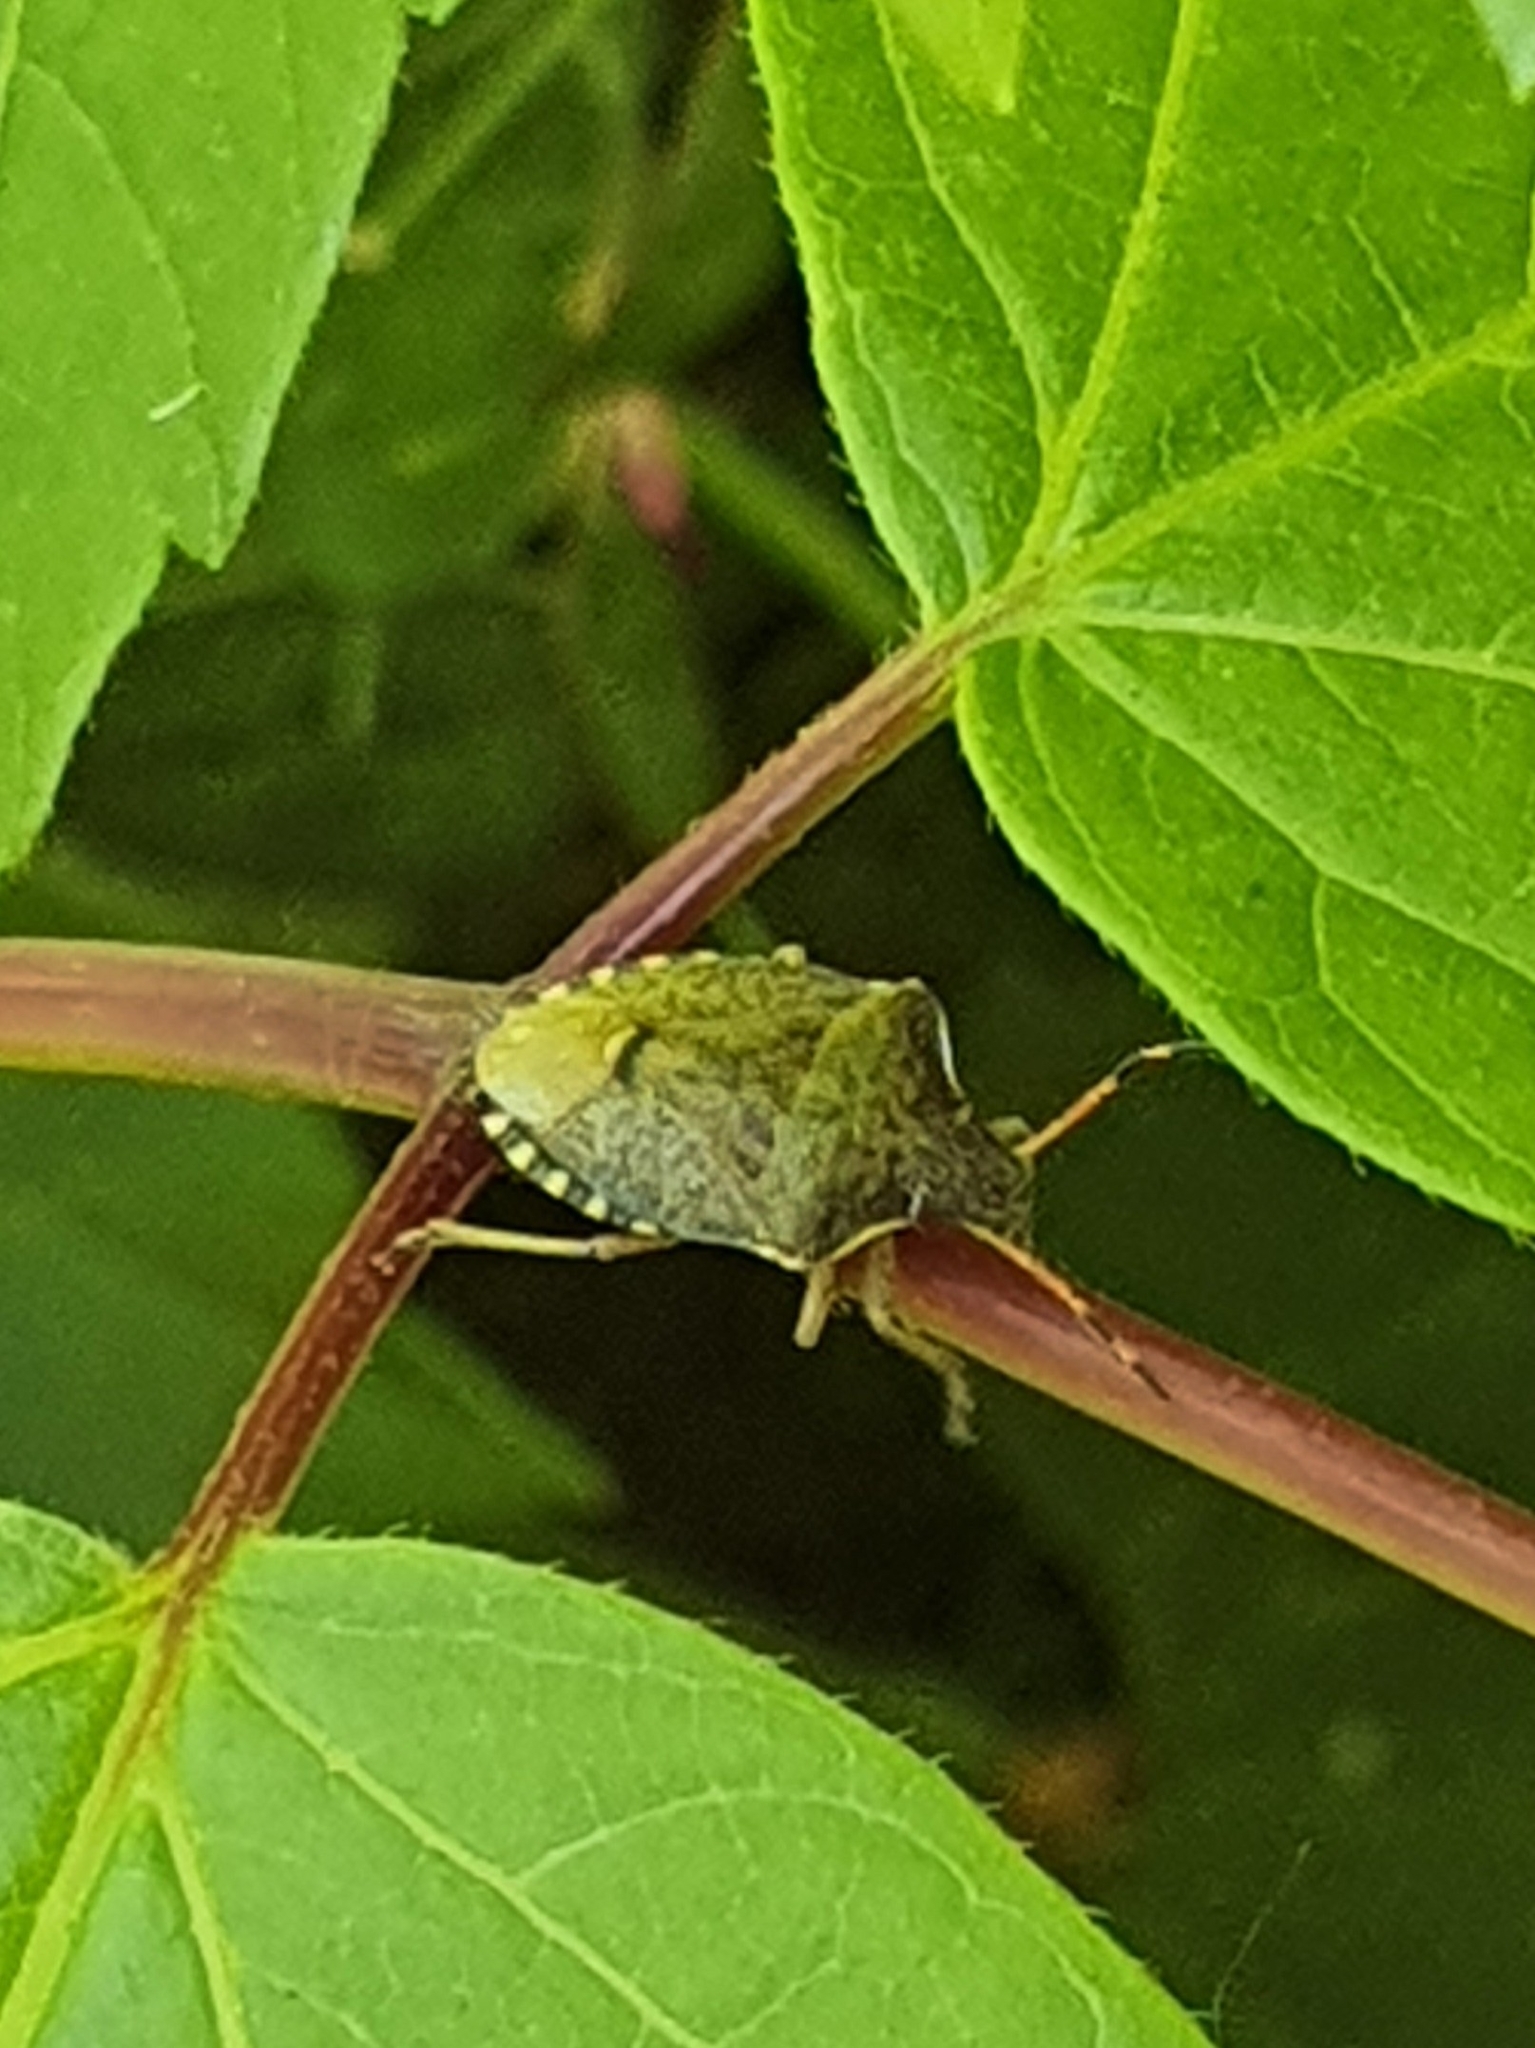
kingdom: Animalia
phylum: Arthropoda
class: Insecta
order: Hemiptera
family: Pentatomidae
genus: Holcostethus
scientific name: Holcostethus strictus
